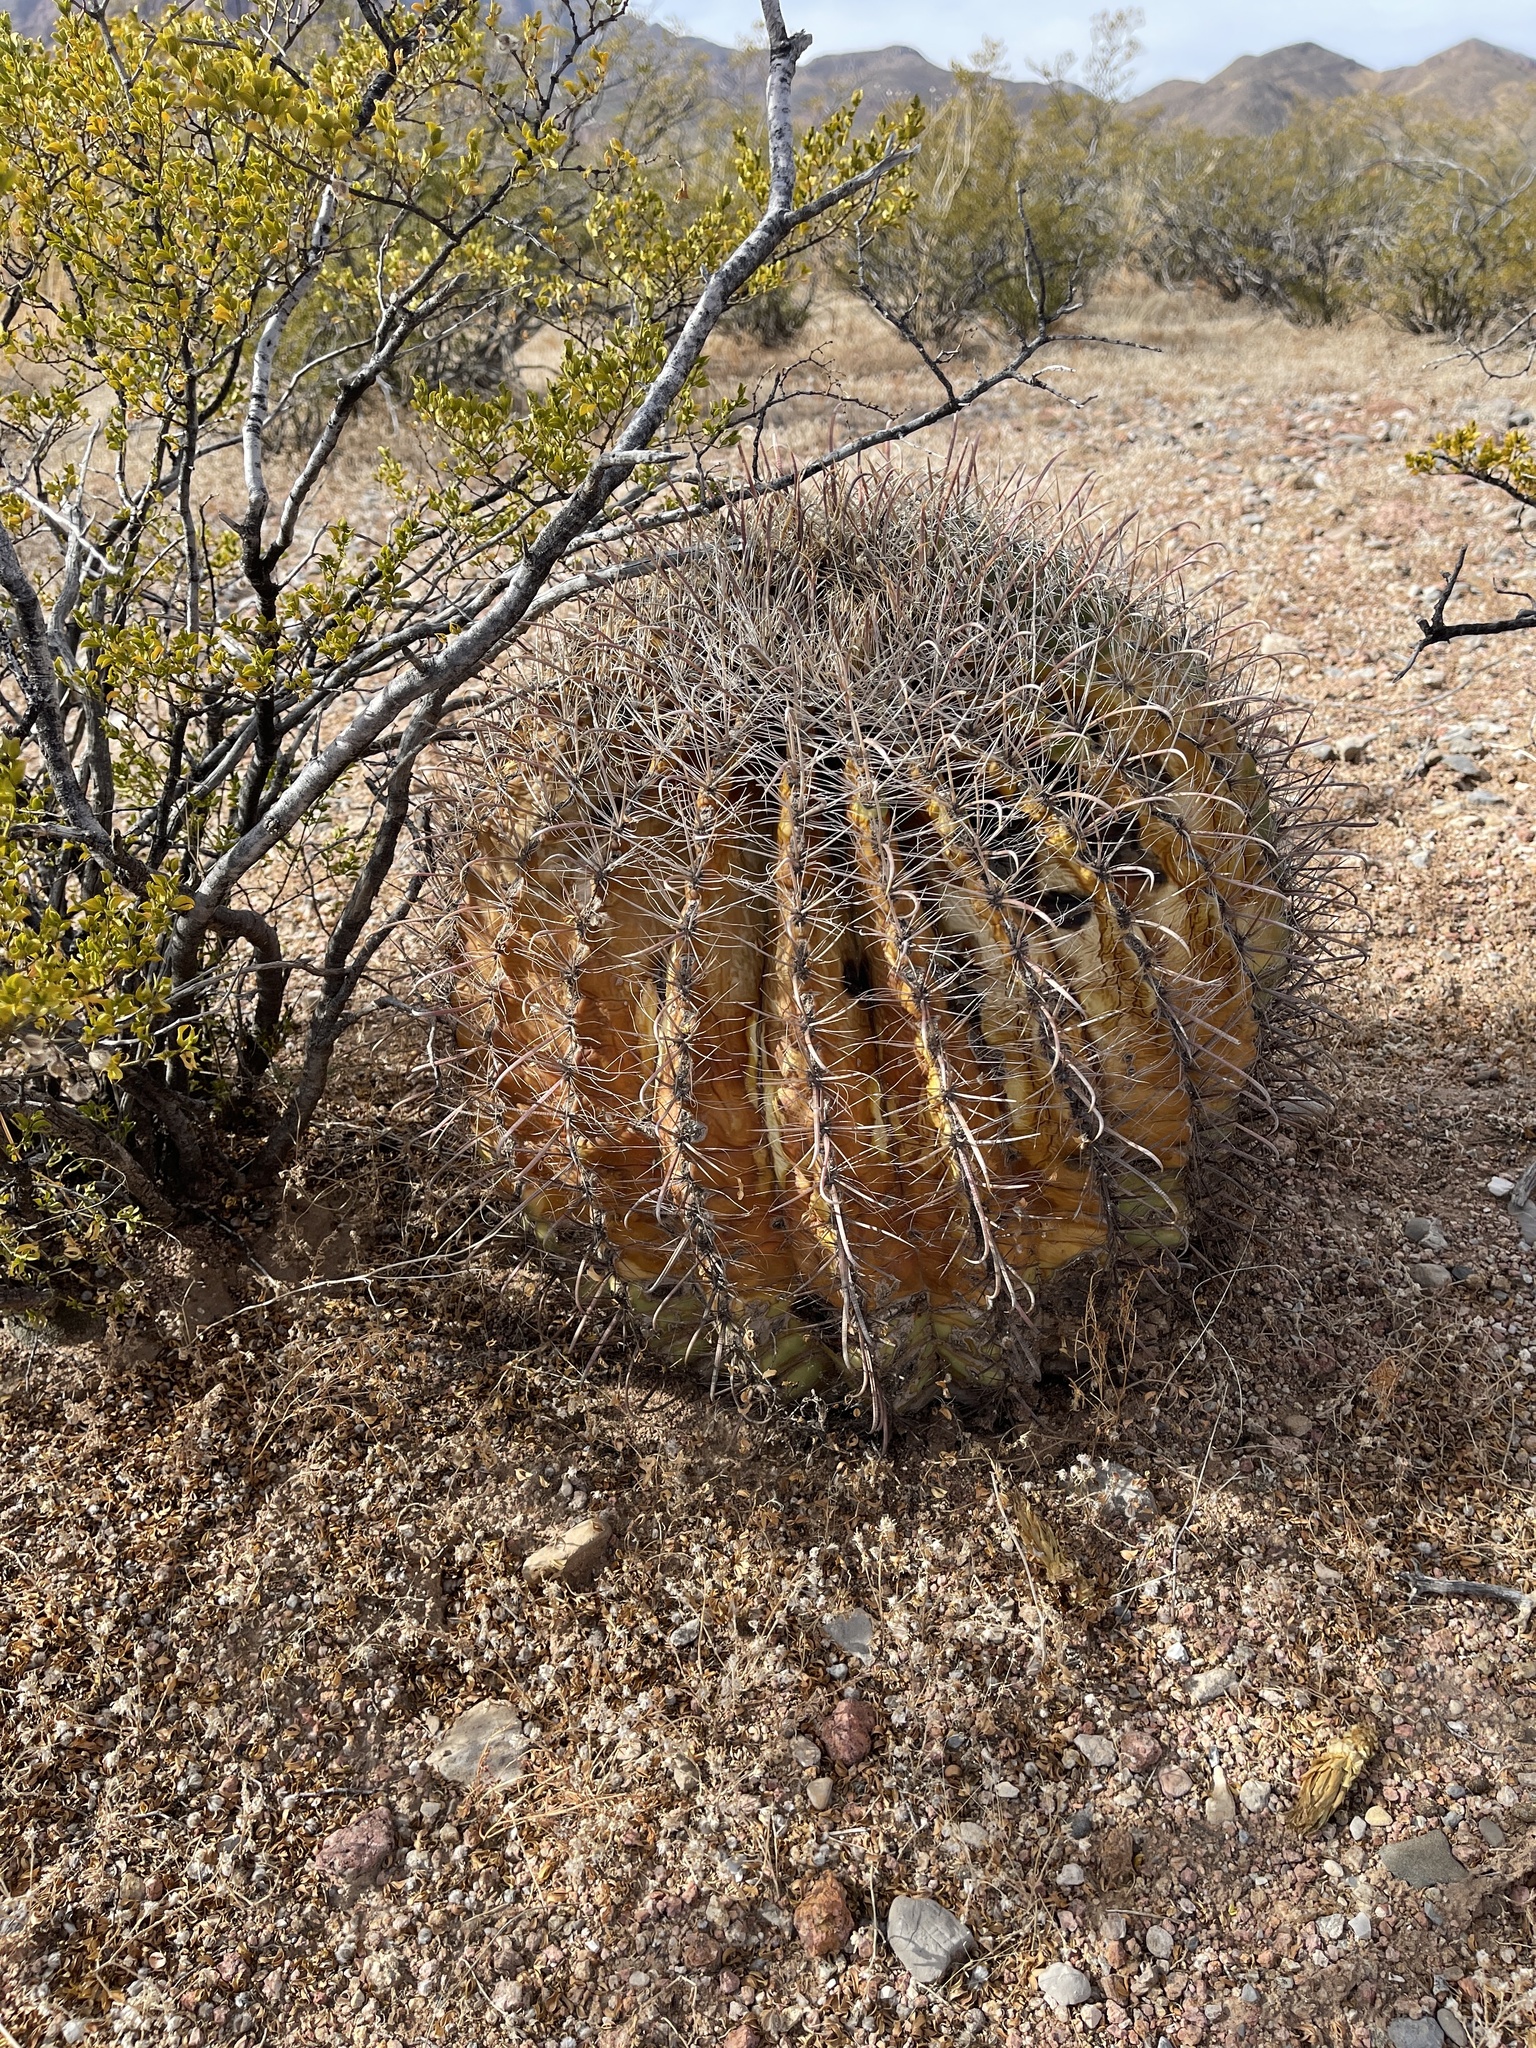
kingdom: Plantae
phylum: Tracheophyta
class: Magnoliopsida
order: Caryophyllales
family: Cactaceae
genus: Ferocactus
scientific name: Ferocactus wislizeni
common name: Candy barrel cactus
